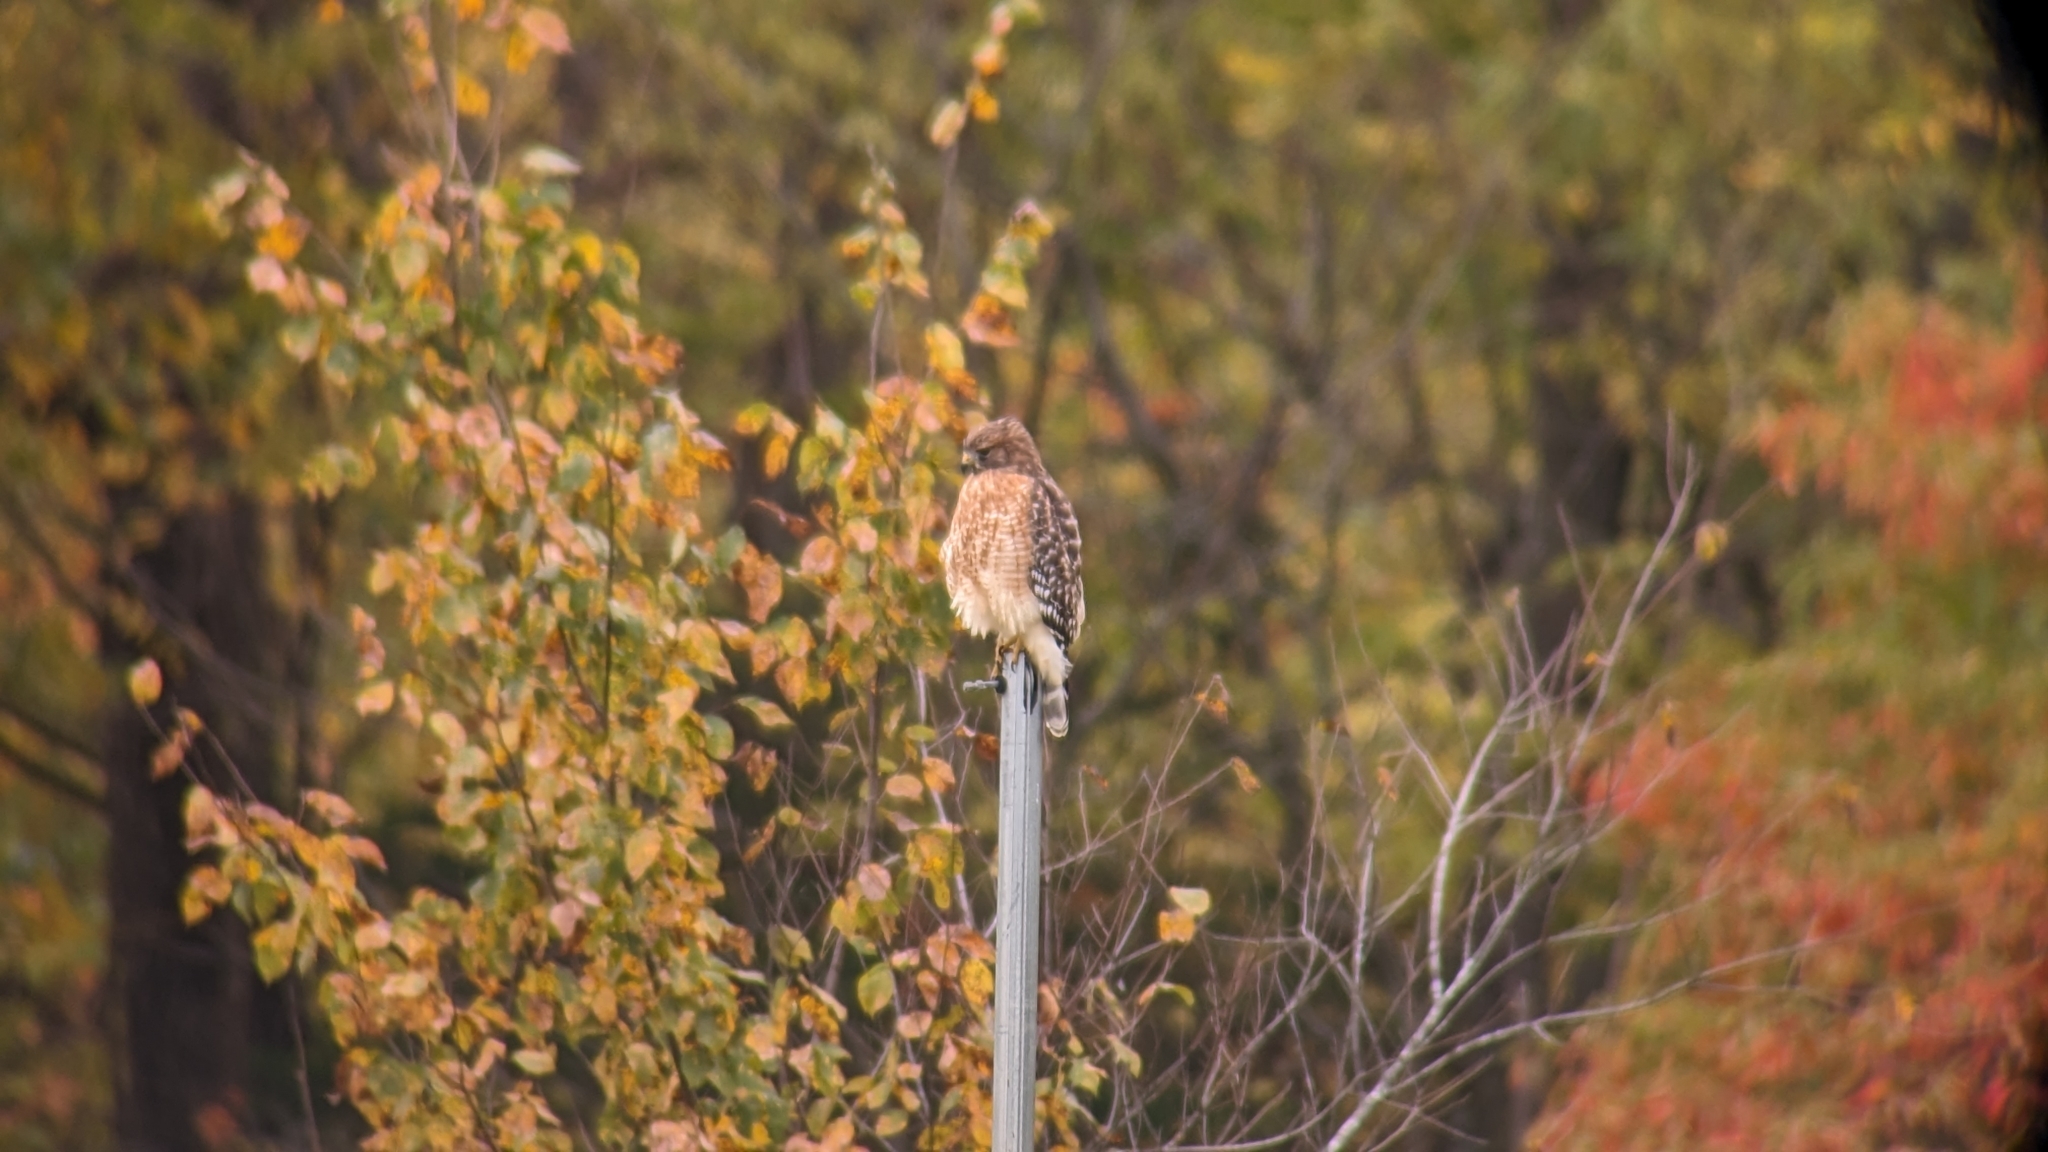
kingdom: Animalia
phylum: Chordata
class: Aves
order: Accipitriformes
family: Accipitridae
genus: Buteo
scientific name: Buteo lineatus
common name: Red-shouldered hawk
